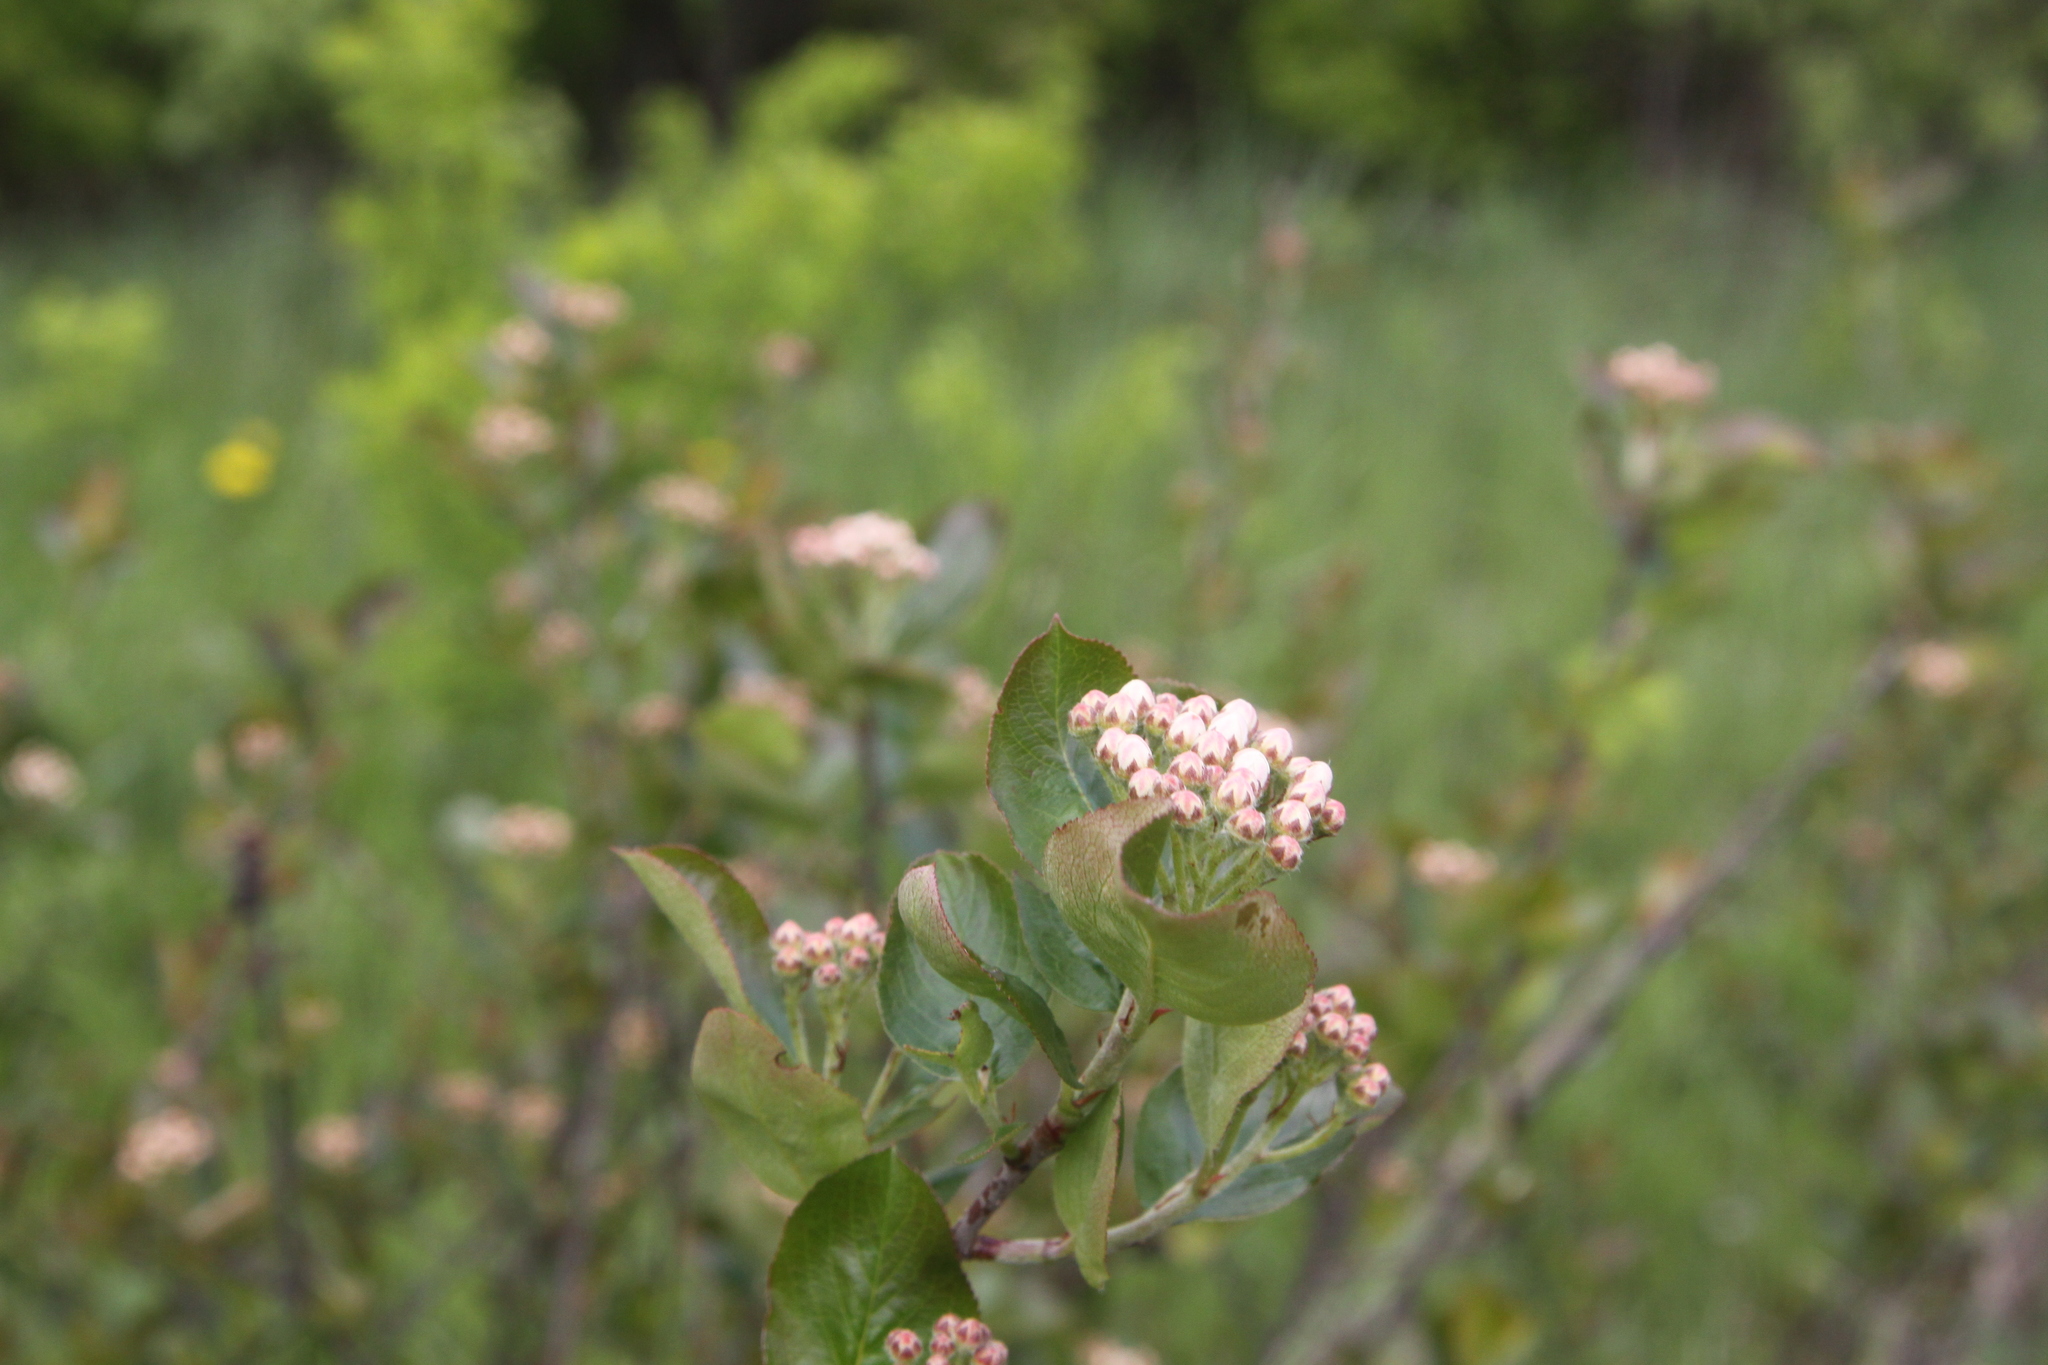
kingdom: Plantae
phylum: Tracheophyta
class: Magnoliopsida
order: Rosales
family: Rosaceae
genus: Sorbaronia
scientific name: Sorbaronia arsenii
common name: Arsène's mountain-ash
